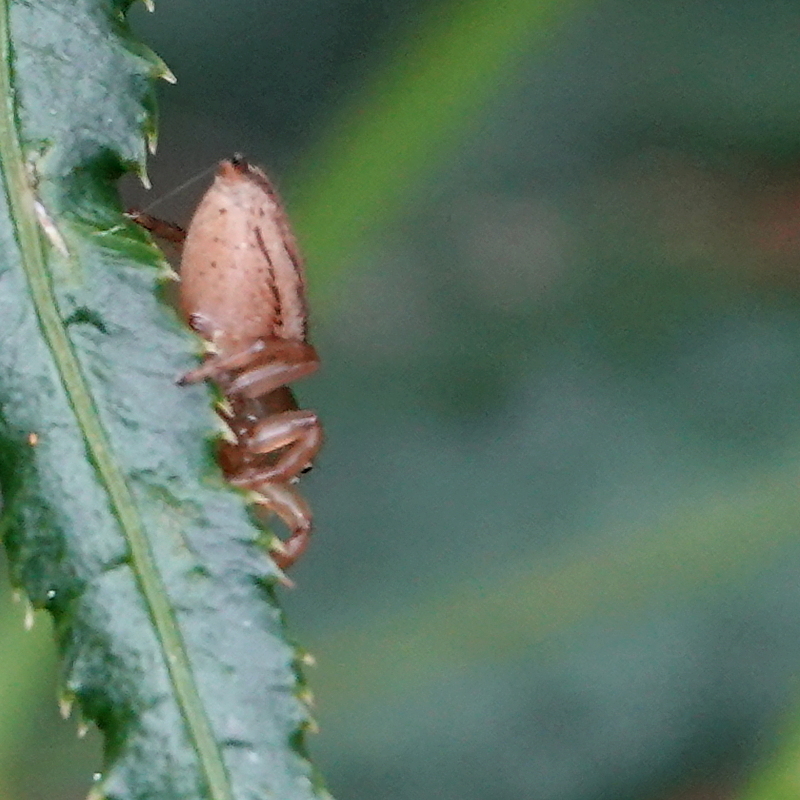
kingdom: Animalia
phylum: Arthropoda
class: Arachnida
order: Araneae
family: Salticidae
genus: Maratus
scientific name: Maratus scutulatus
